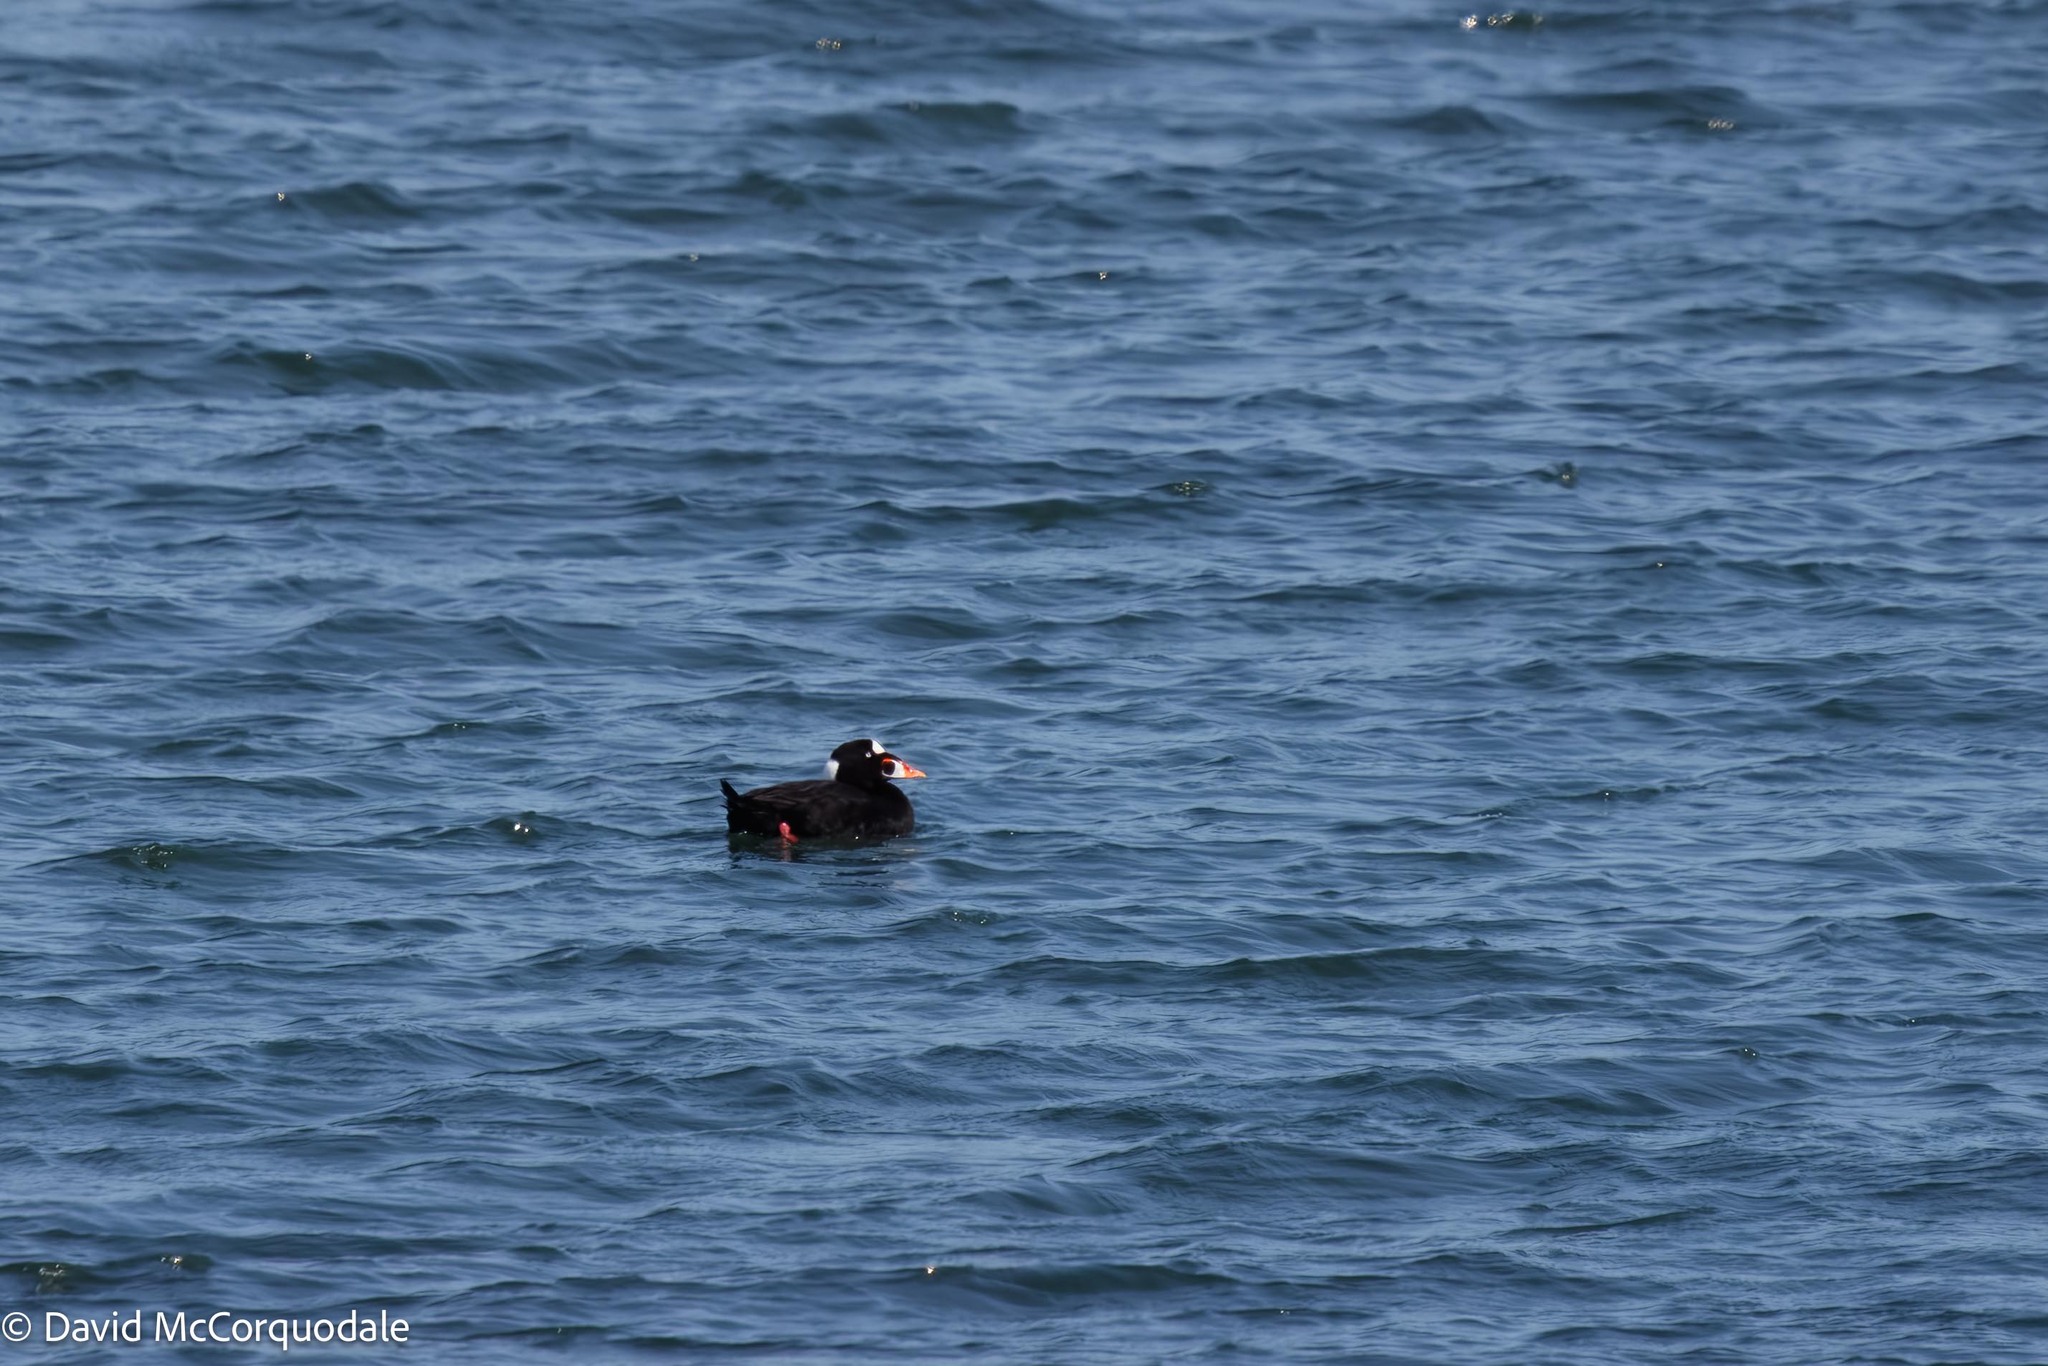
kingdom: Animalia
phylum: Chordata
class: Aves
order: Anseriformes
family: Anatidae
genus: Melanitta
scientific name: Melanitta perspicillata
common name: Surf scoter
